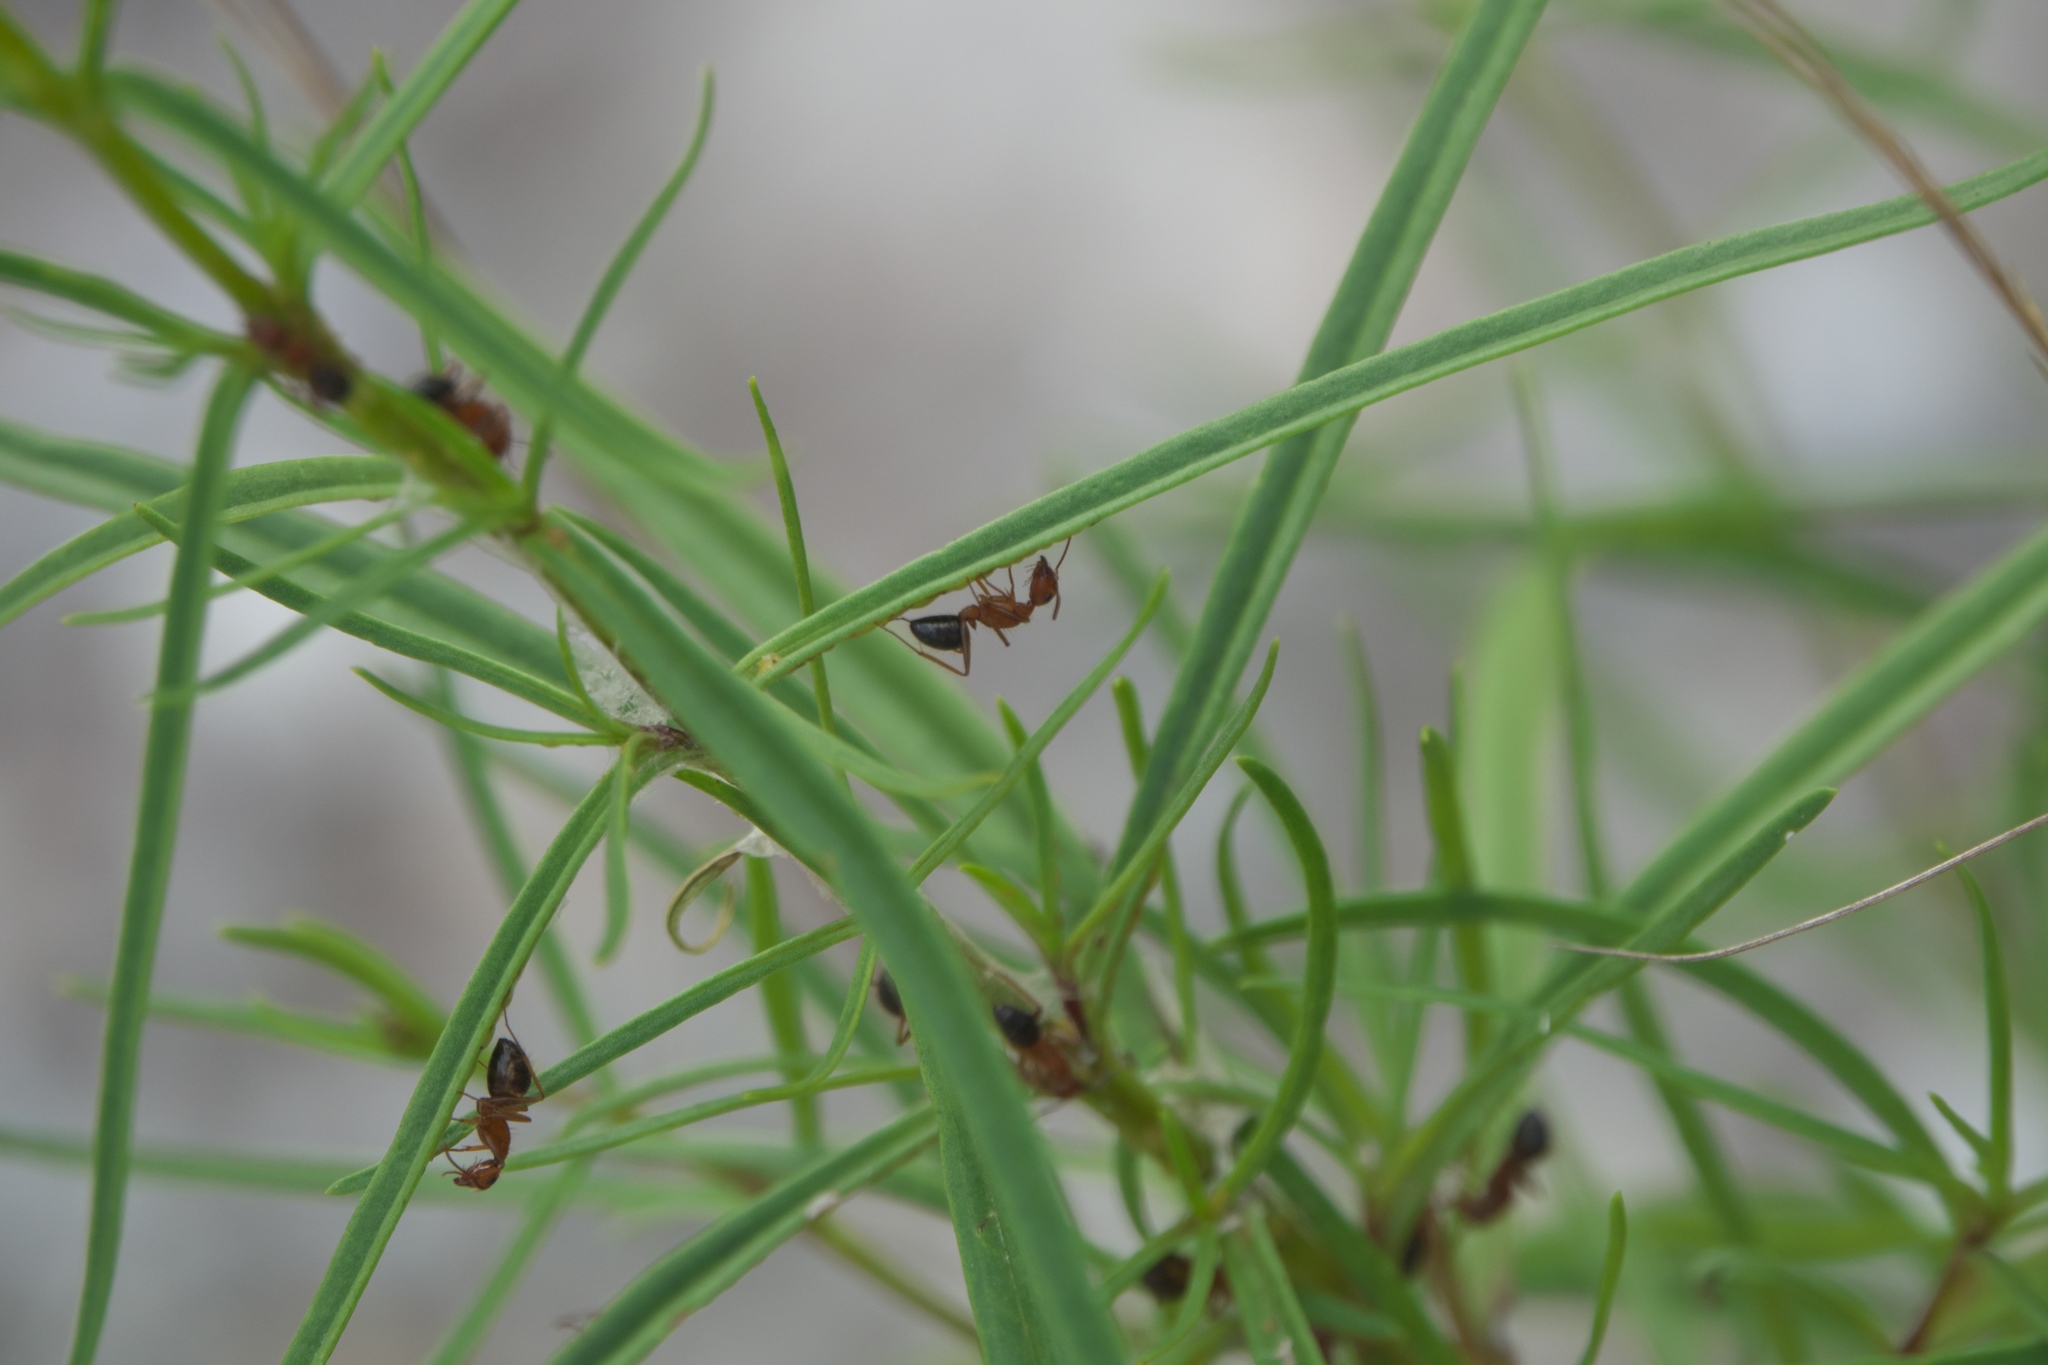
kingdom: Animalia
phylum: Arthropoda
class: Insecta
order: Hymenoptera
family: Formicidae
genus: Camponotus
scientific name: Camponotus floridanus
